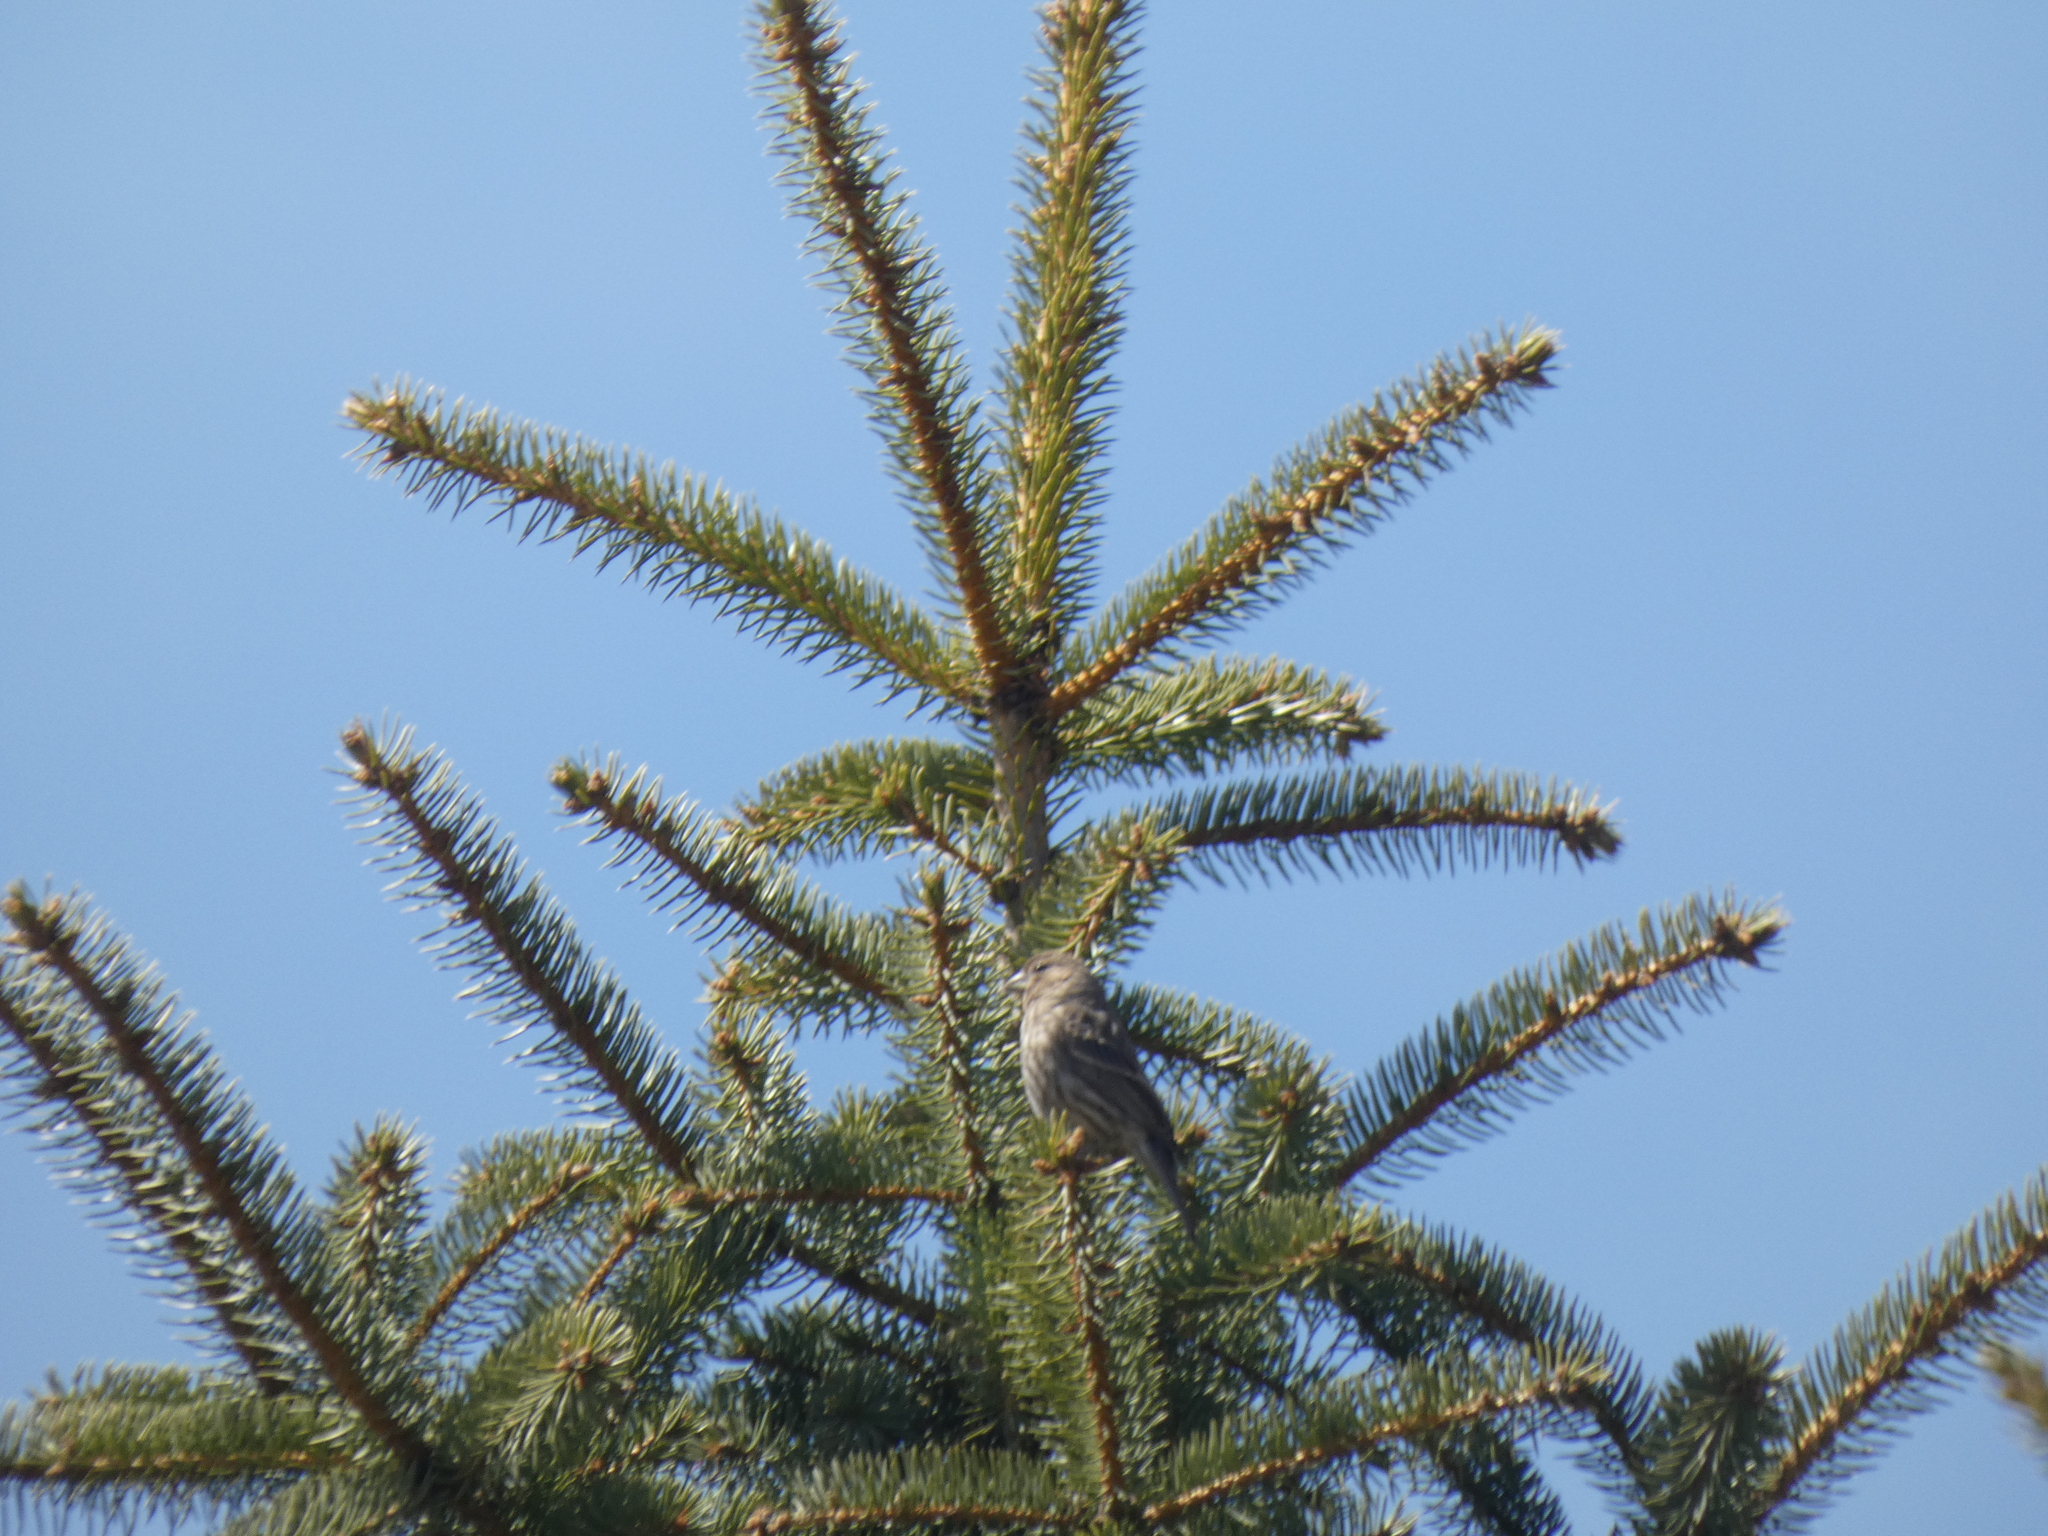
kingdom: Animalia
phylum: Chordata
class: Aves
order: Passeriformes
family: Fringillidae
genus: Haemorhous
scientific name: Haemorhous mexicanus
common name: House finch
